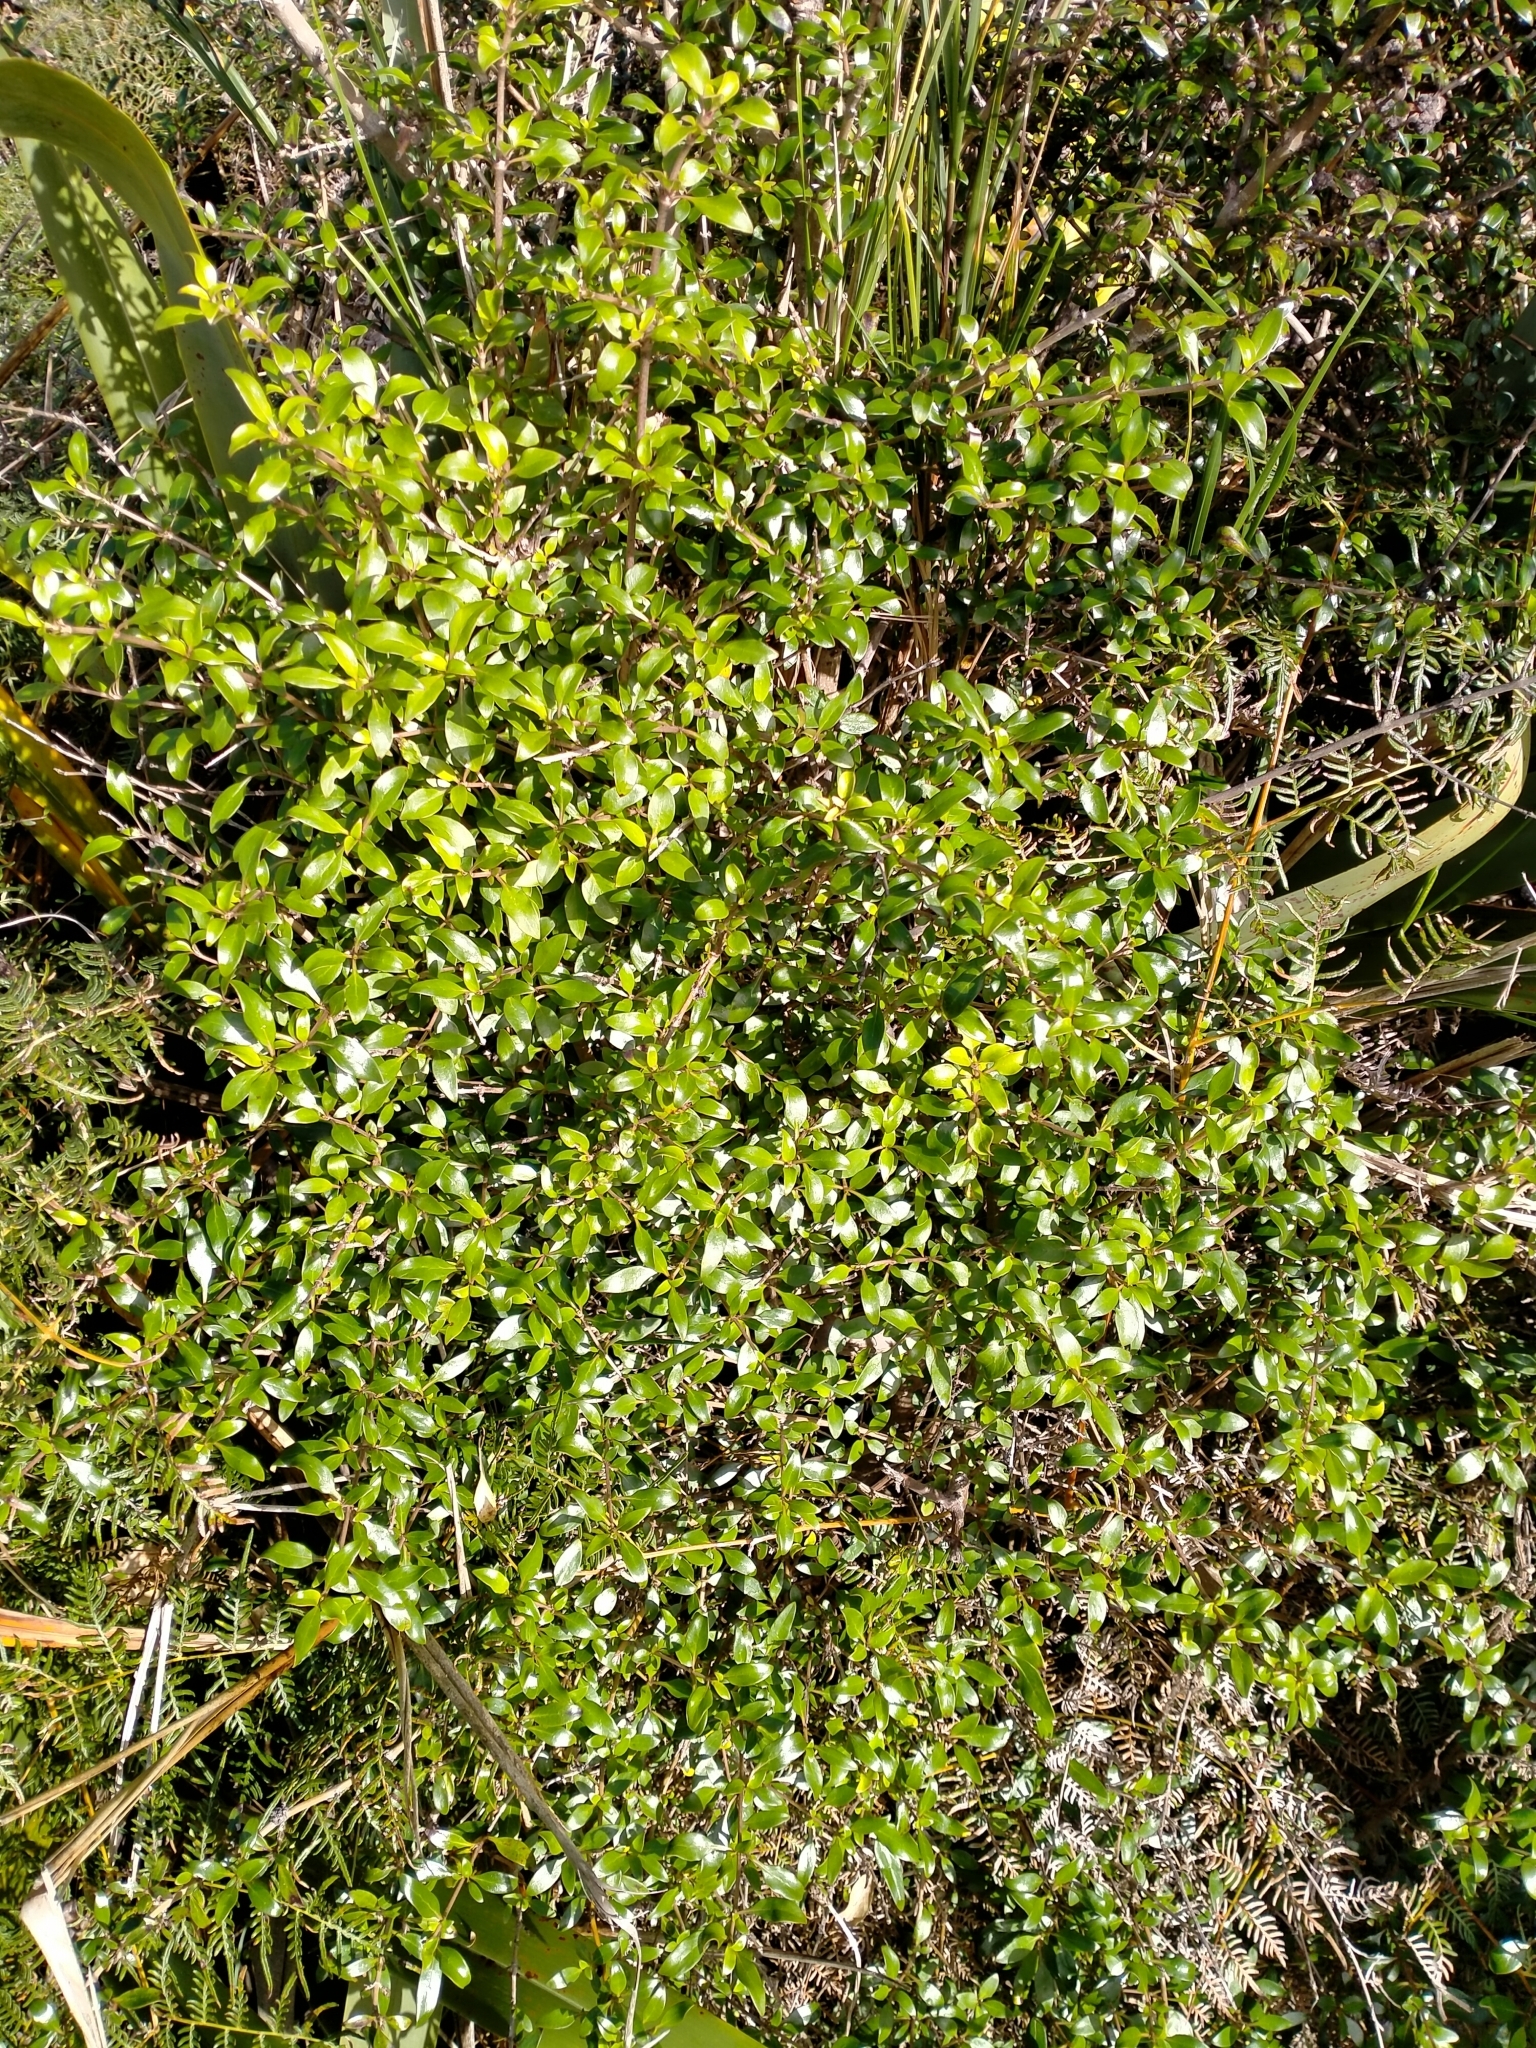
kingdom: Plantae
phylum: Tracheophyta
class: Magnoliopsida
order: Gentianales
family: Rubiaceae
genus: Coprosma
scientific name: Coprosma cunninghamii
